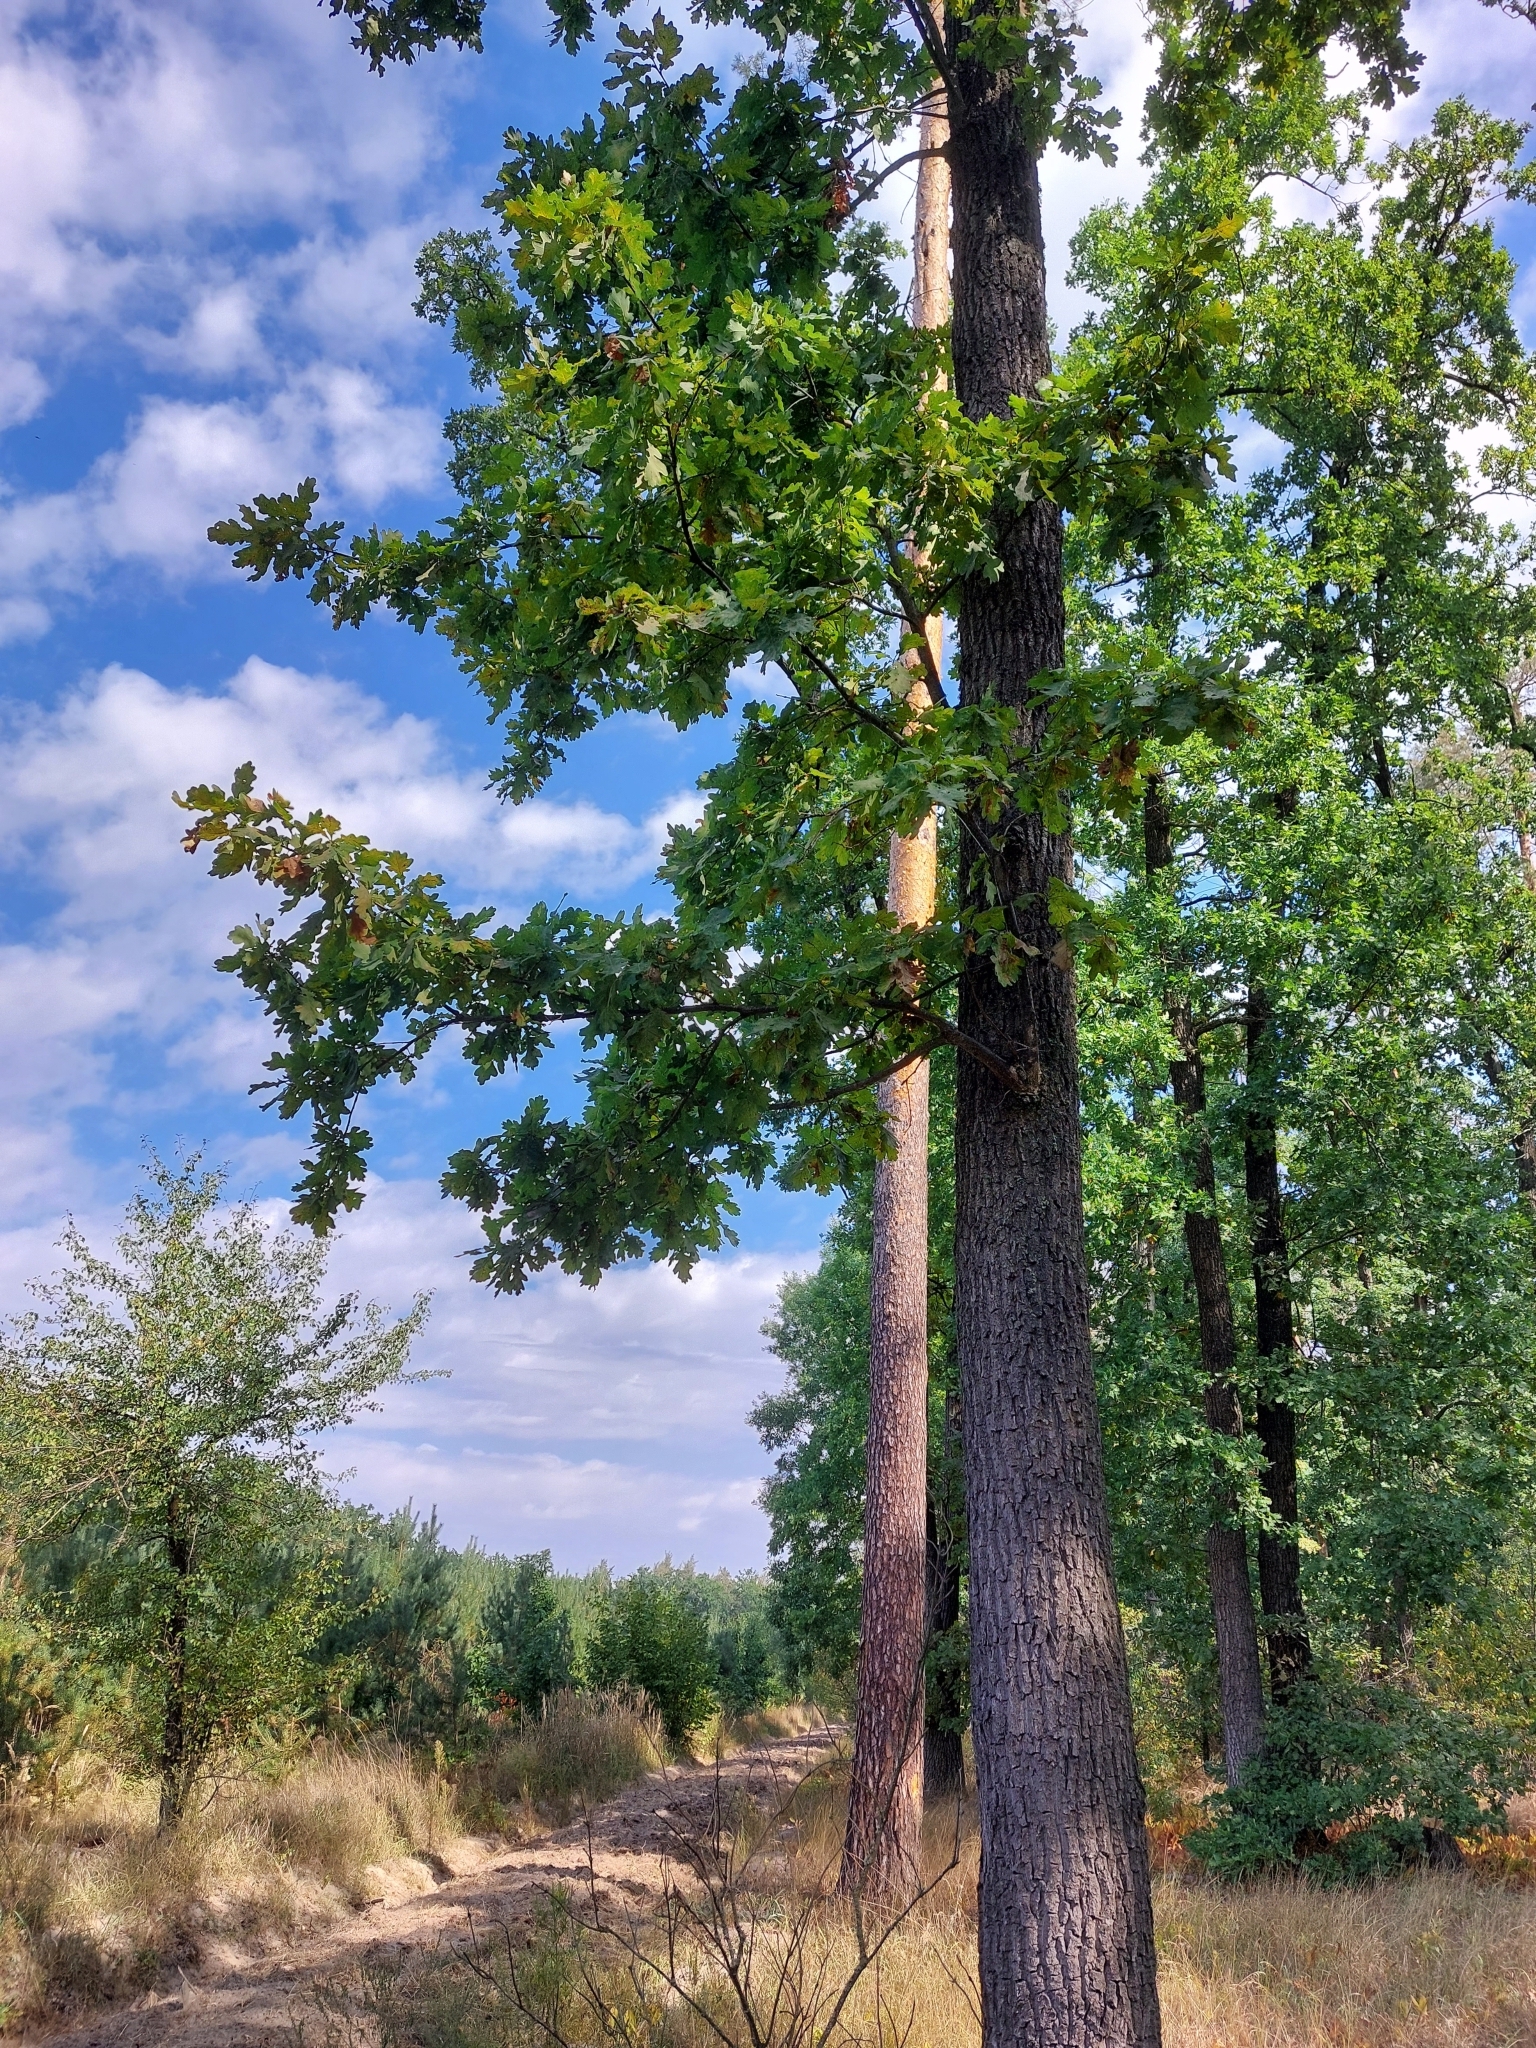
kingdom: Plantae
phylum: Tracheophyta
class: Magnoliopsida
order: Fagales
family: Fagaceae
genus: Quercus
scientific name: Quercus robur
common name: Pedunculate oak
